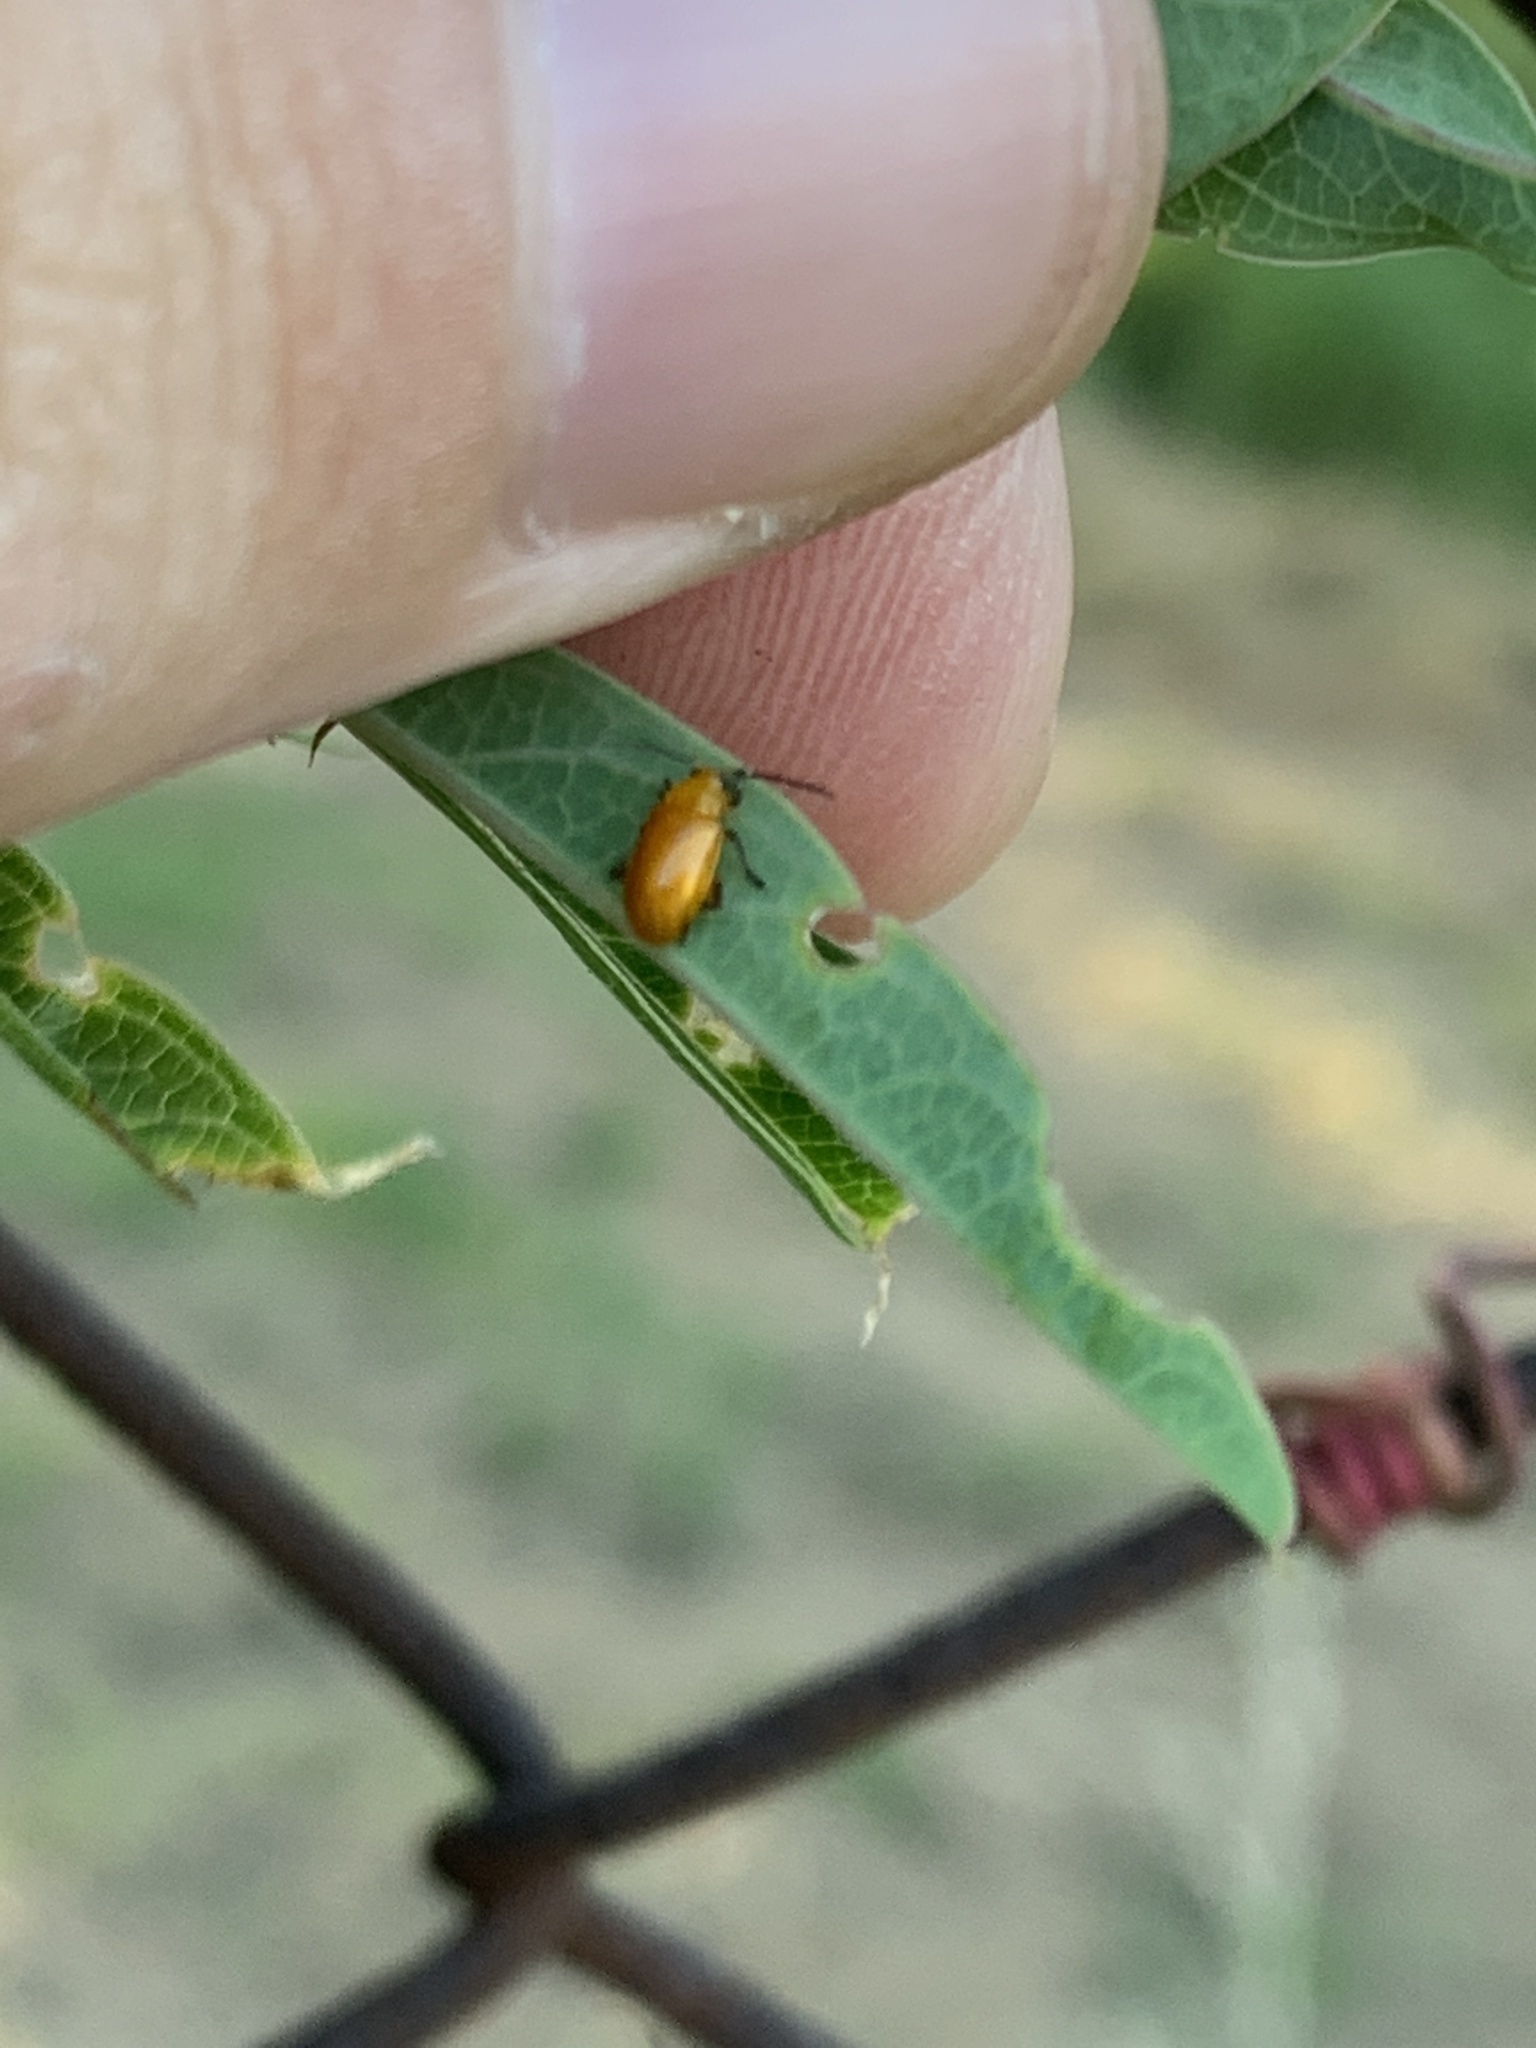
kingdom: Animalia
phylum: Arthropoda
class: Insecta
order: Coleoptera
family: Chrysomelidae
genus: Parchicola
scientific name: Parchicola
